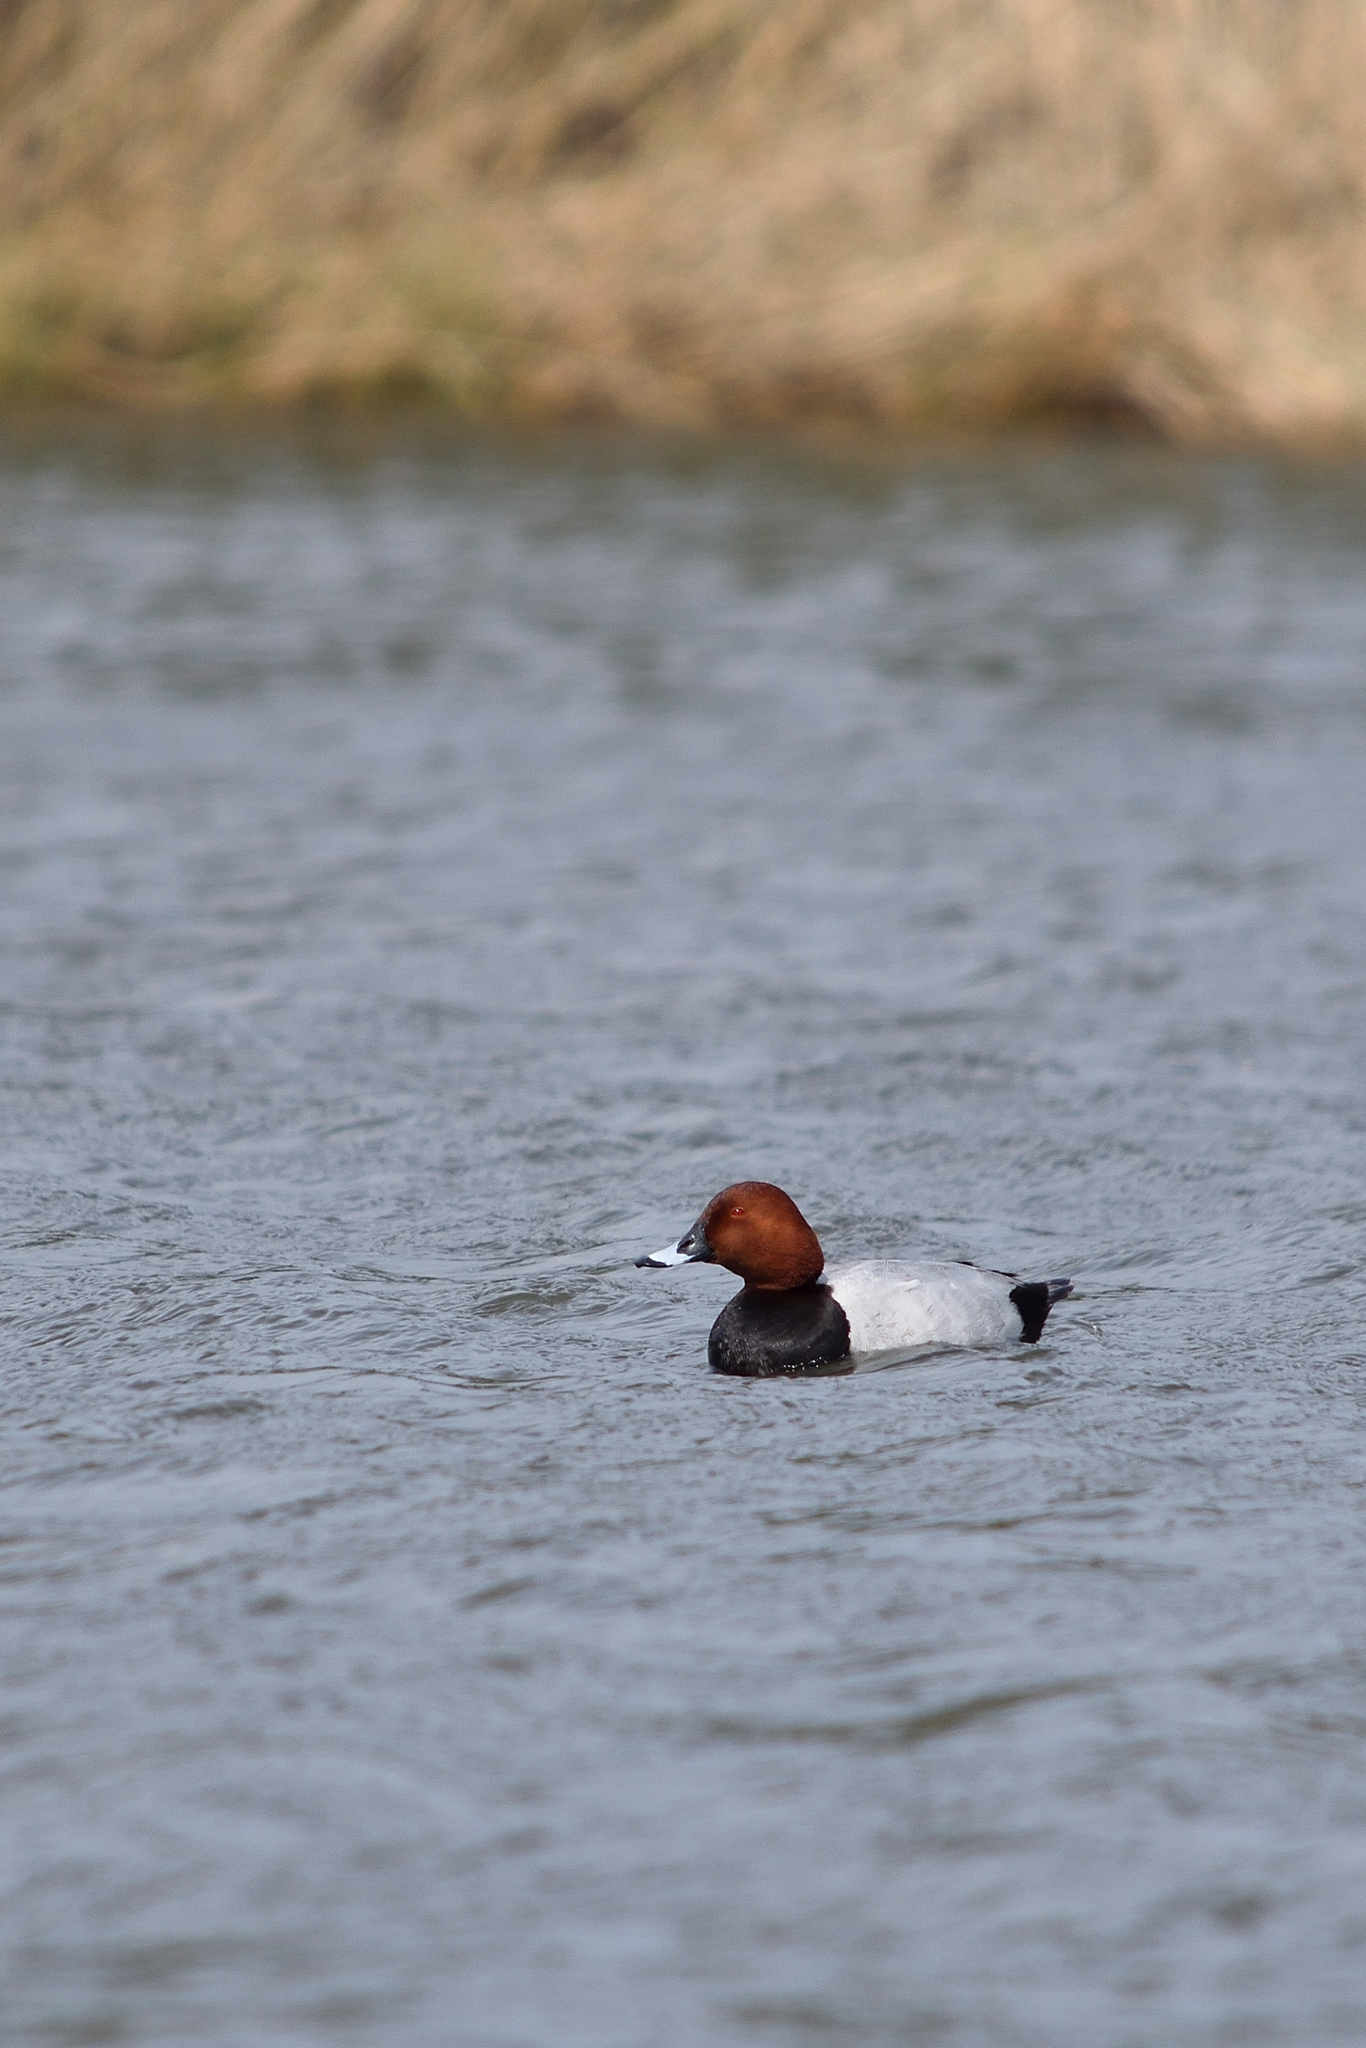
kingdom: Animalia
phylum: Chordata
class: Aves
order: Anseriformes
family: Anatidae
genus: Aythya
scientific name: Aythya ferina
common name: Common pochard
